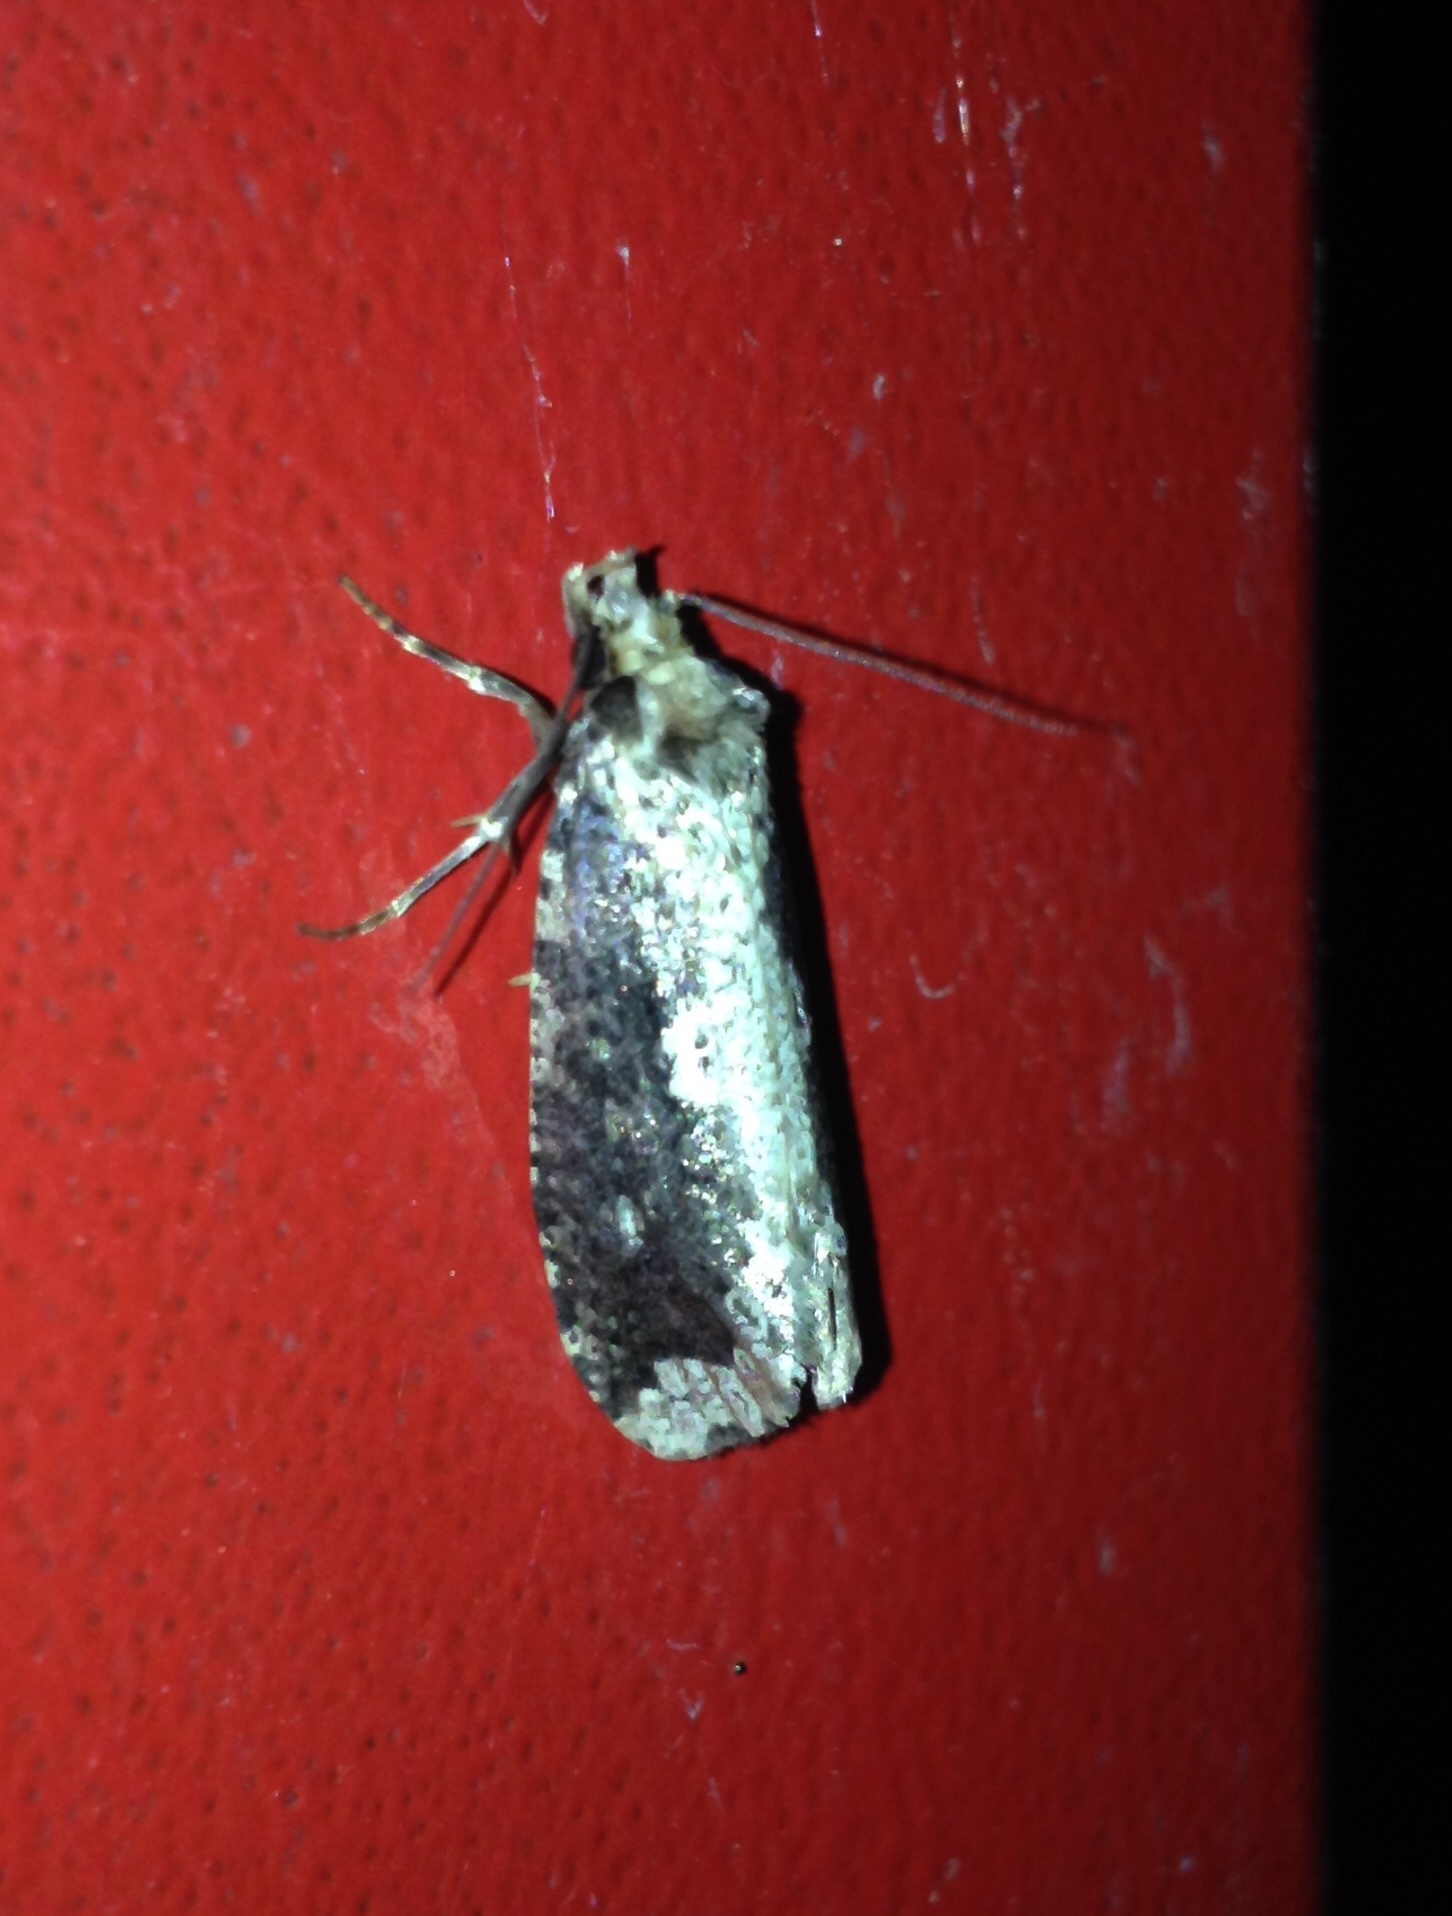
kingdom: Animalia
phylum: Arthropoda
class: Insecta
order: Lepidoptera
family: Tineidae
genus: Scardia
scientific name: Scardia boletella
